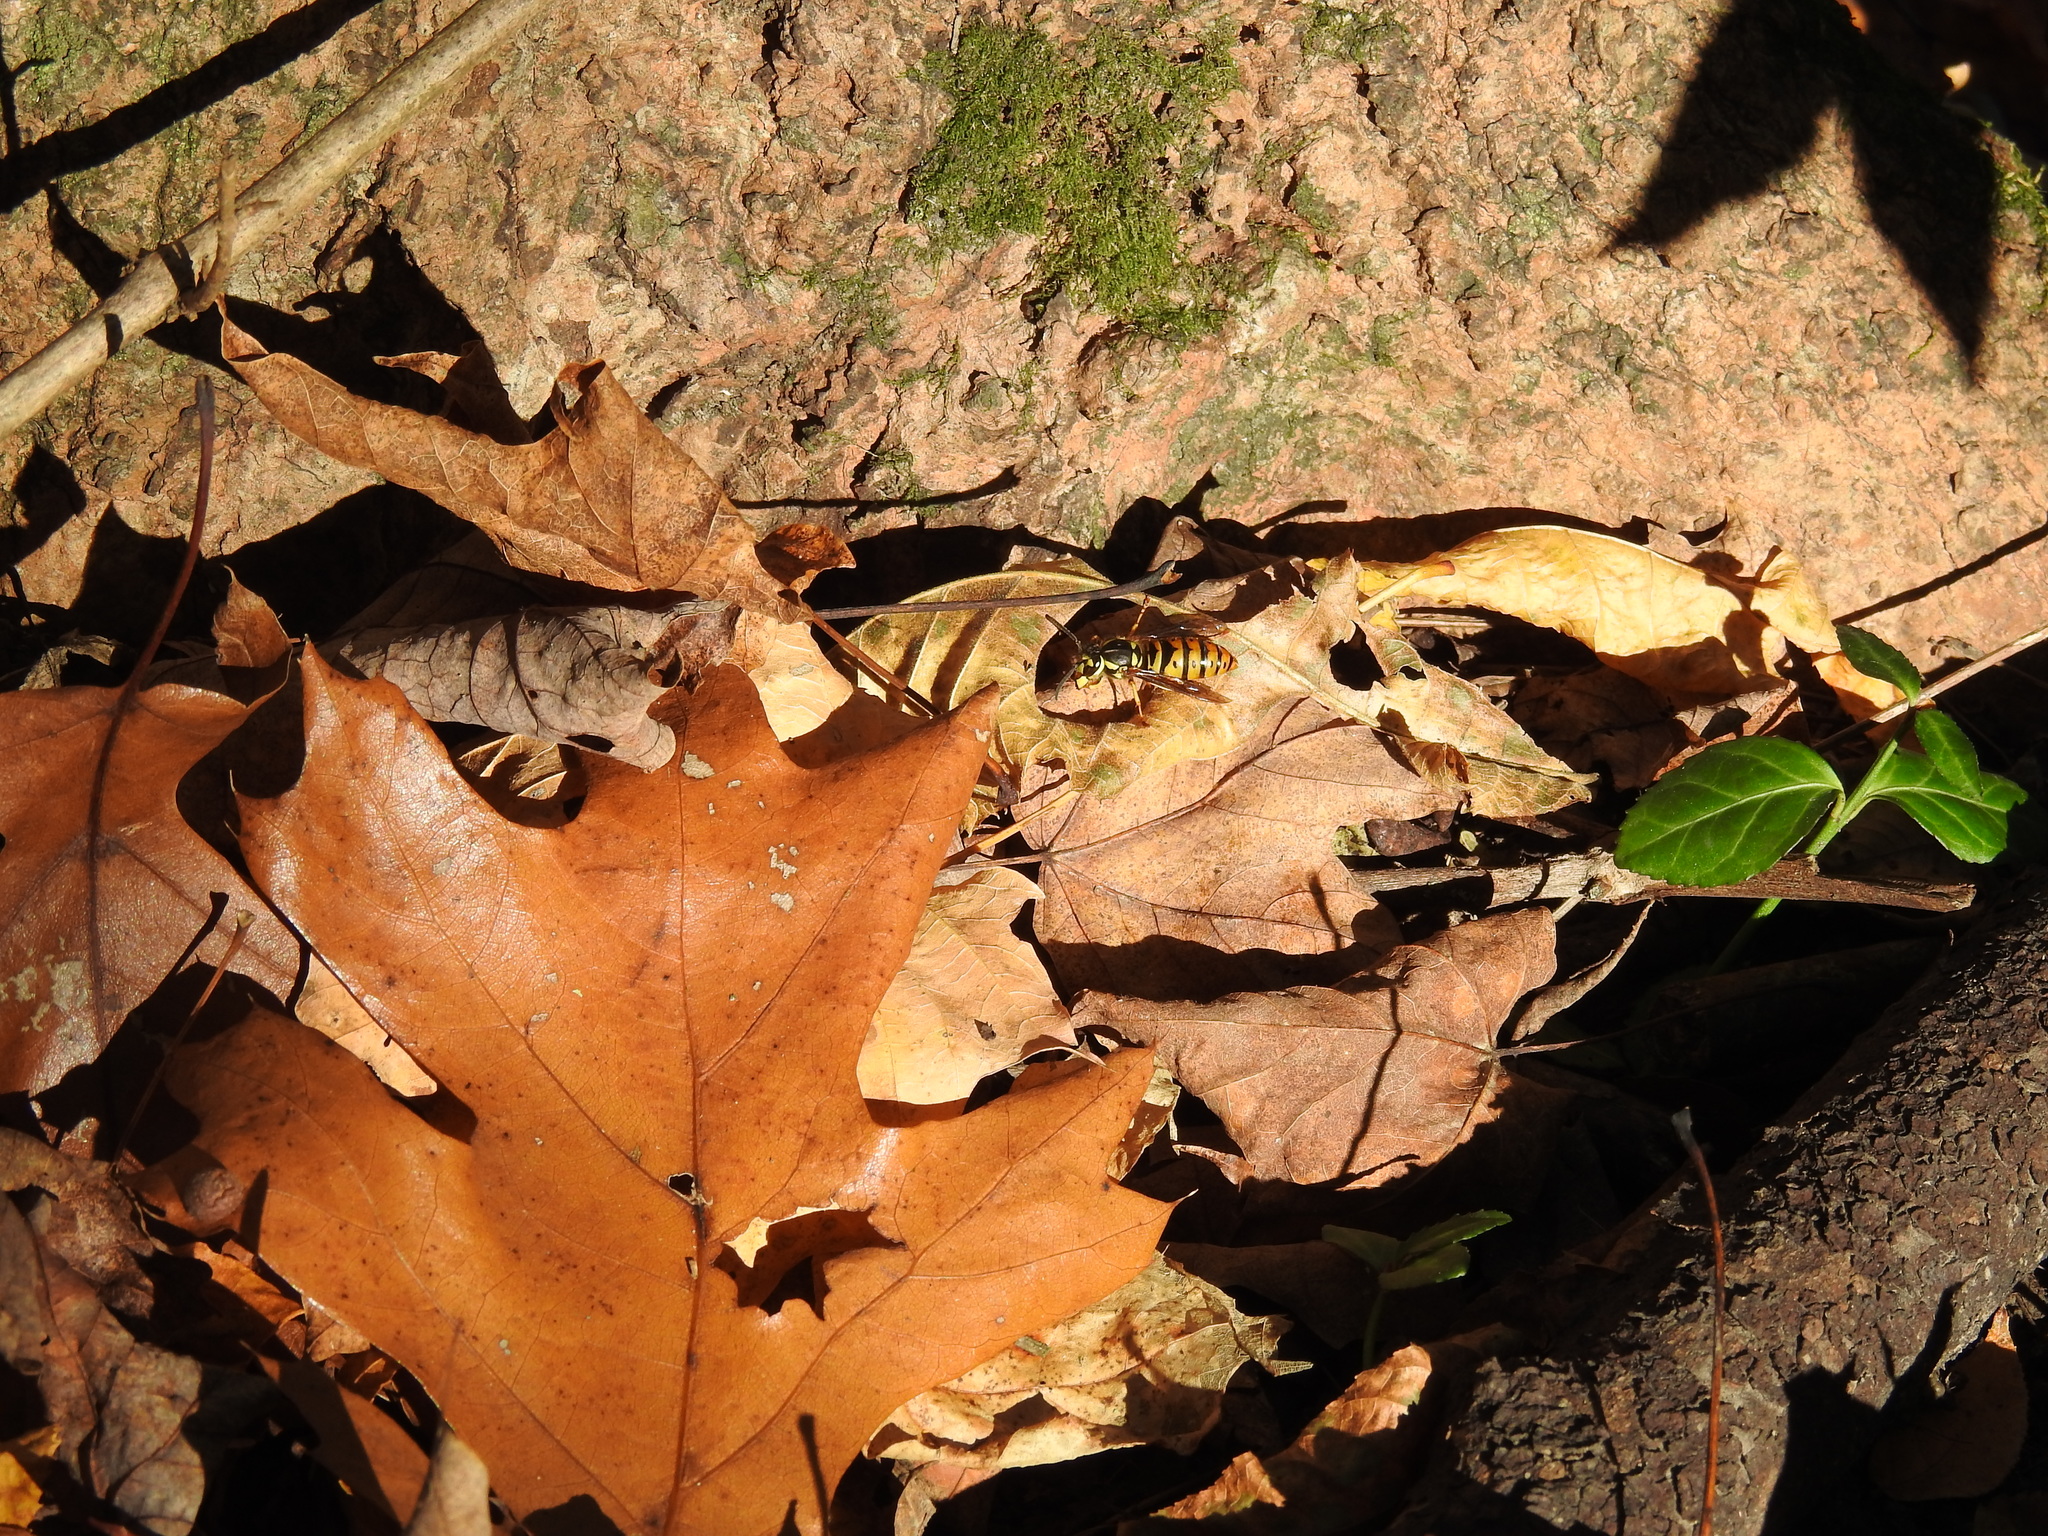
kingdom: Animalia
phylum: Arthropoda
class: Insecta
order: Hymenoptera
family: Vespidae
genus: Vespula
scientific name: Vespula maculifrons
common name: Eastern yellowjacket
